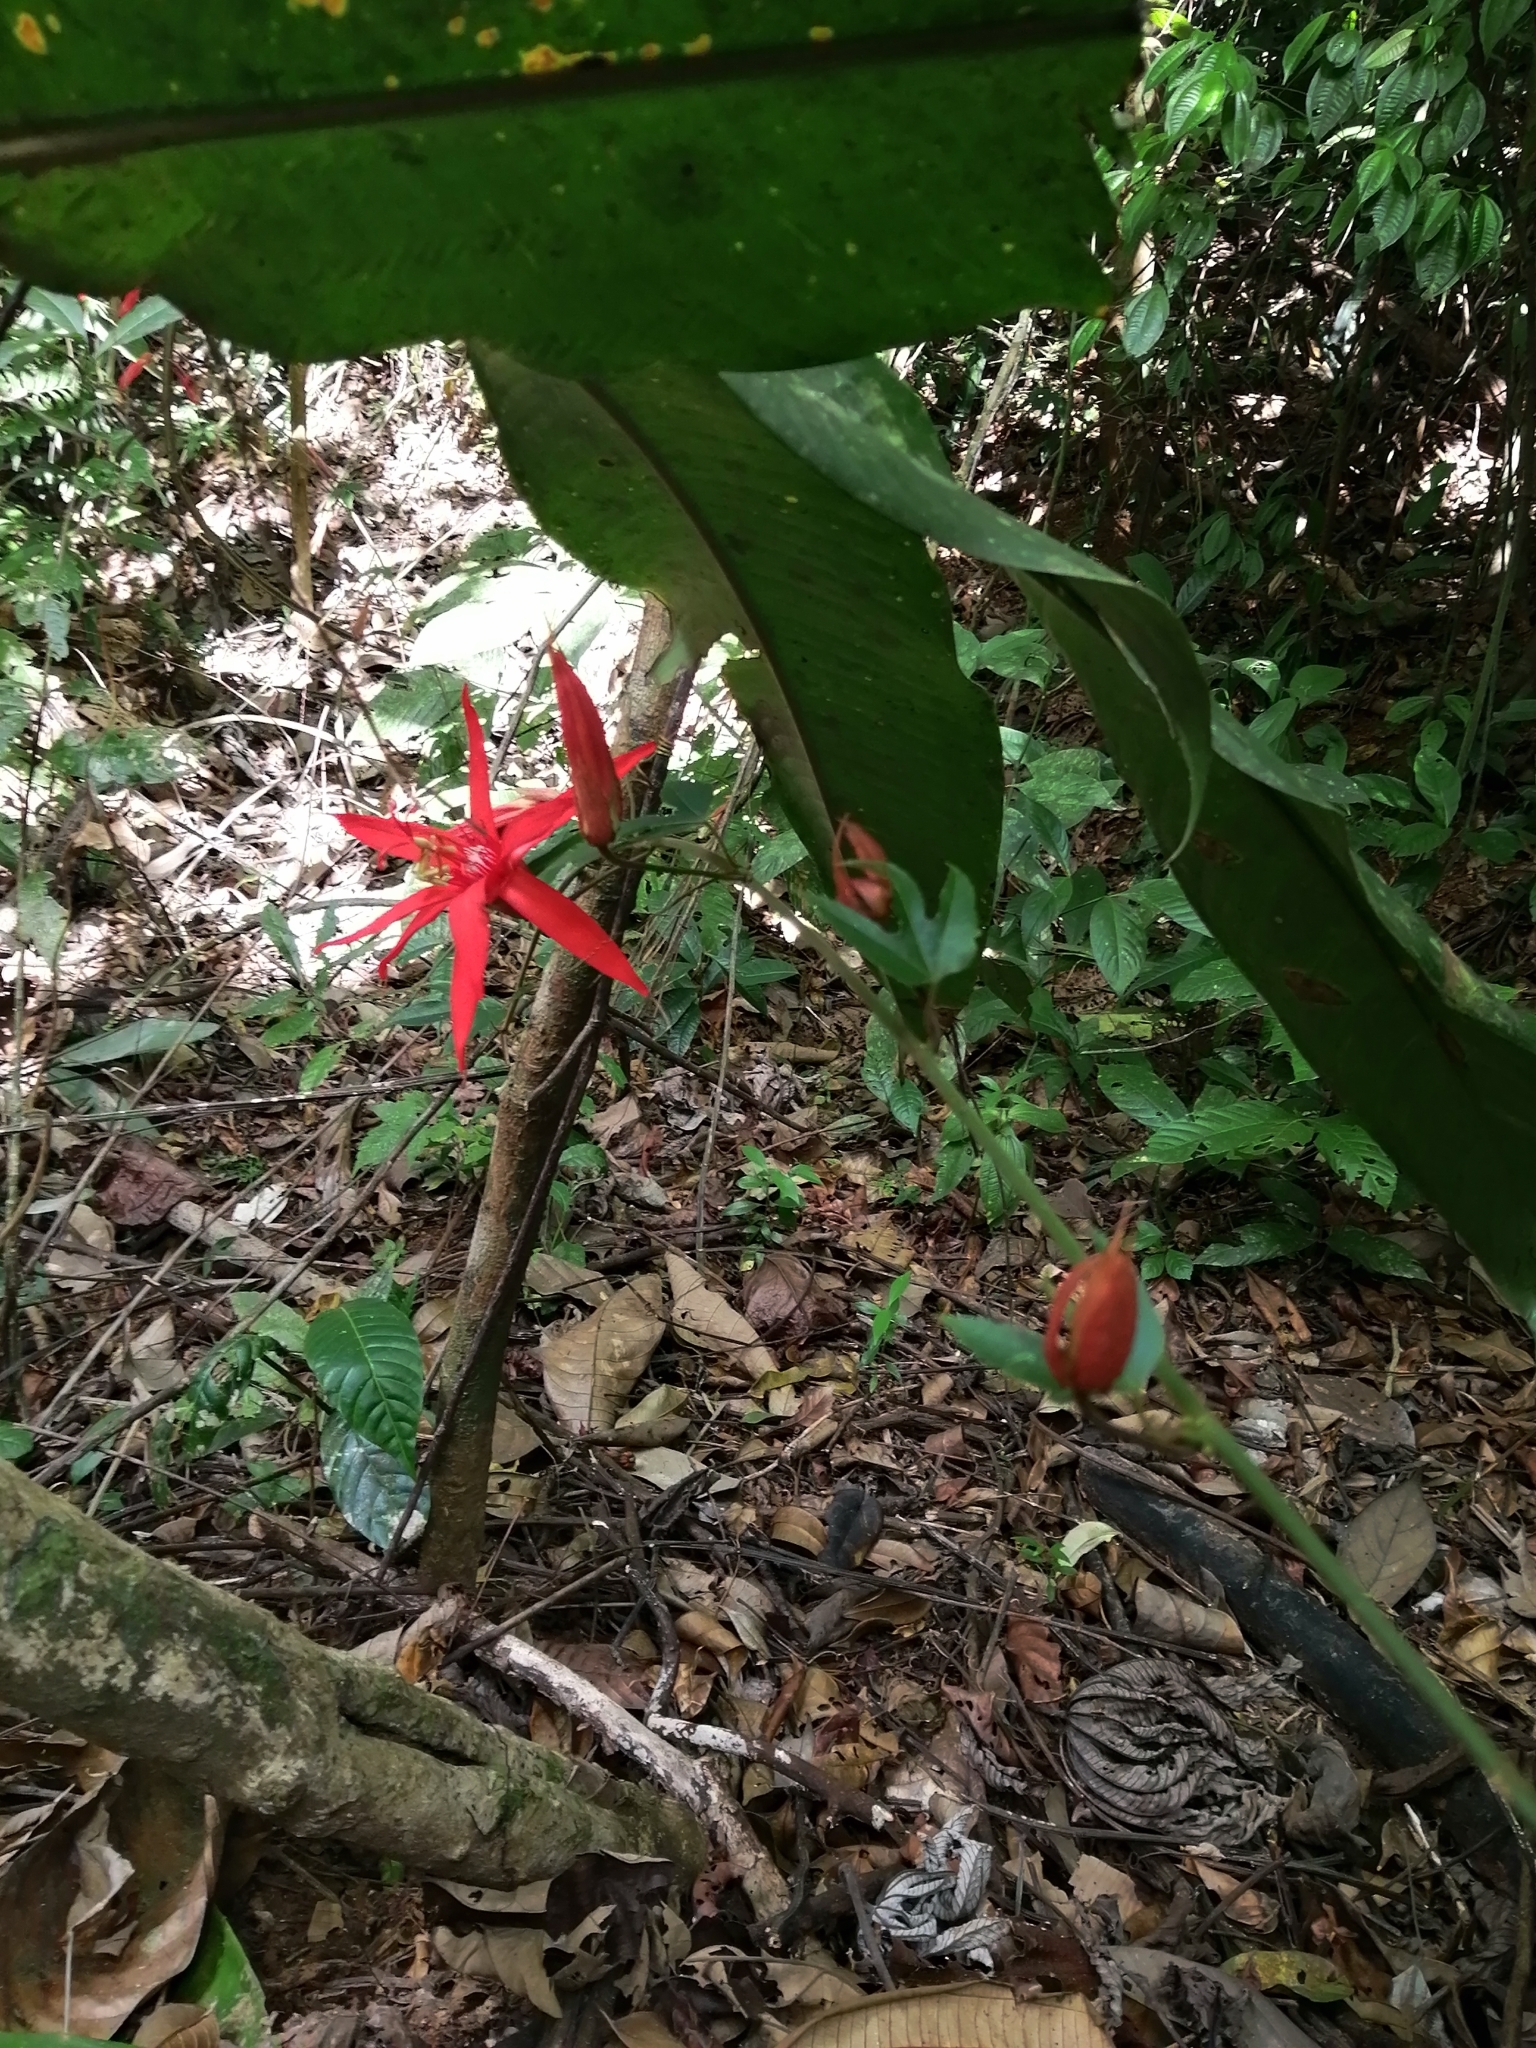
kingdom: Plantae
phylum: Tracheophyta
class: Magnoliopsida
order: Malpighiales
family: Passifloraceae
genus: Passiflora
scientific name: Passiflora vitifolia
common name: Perfumed passionflower
